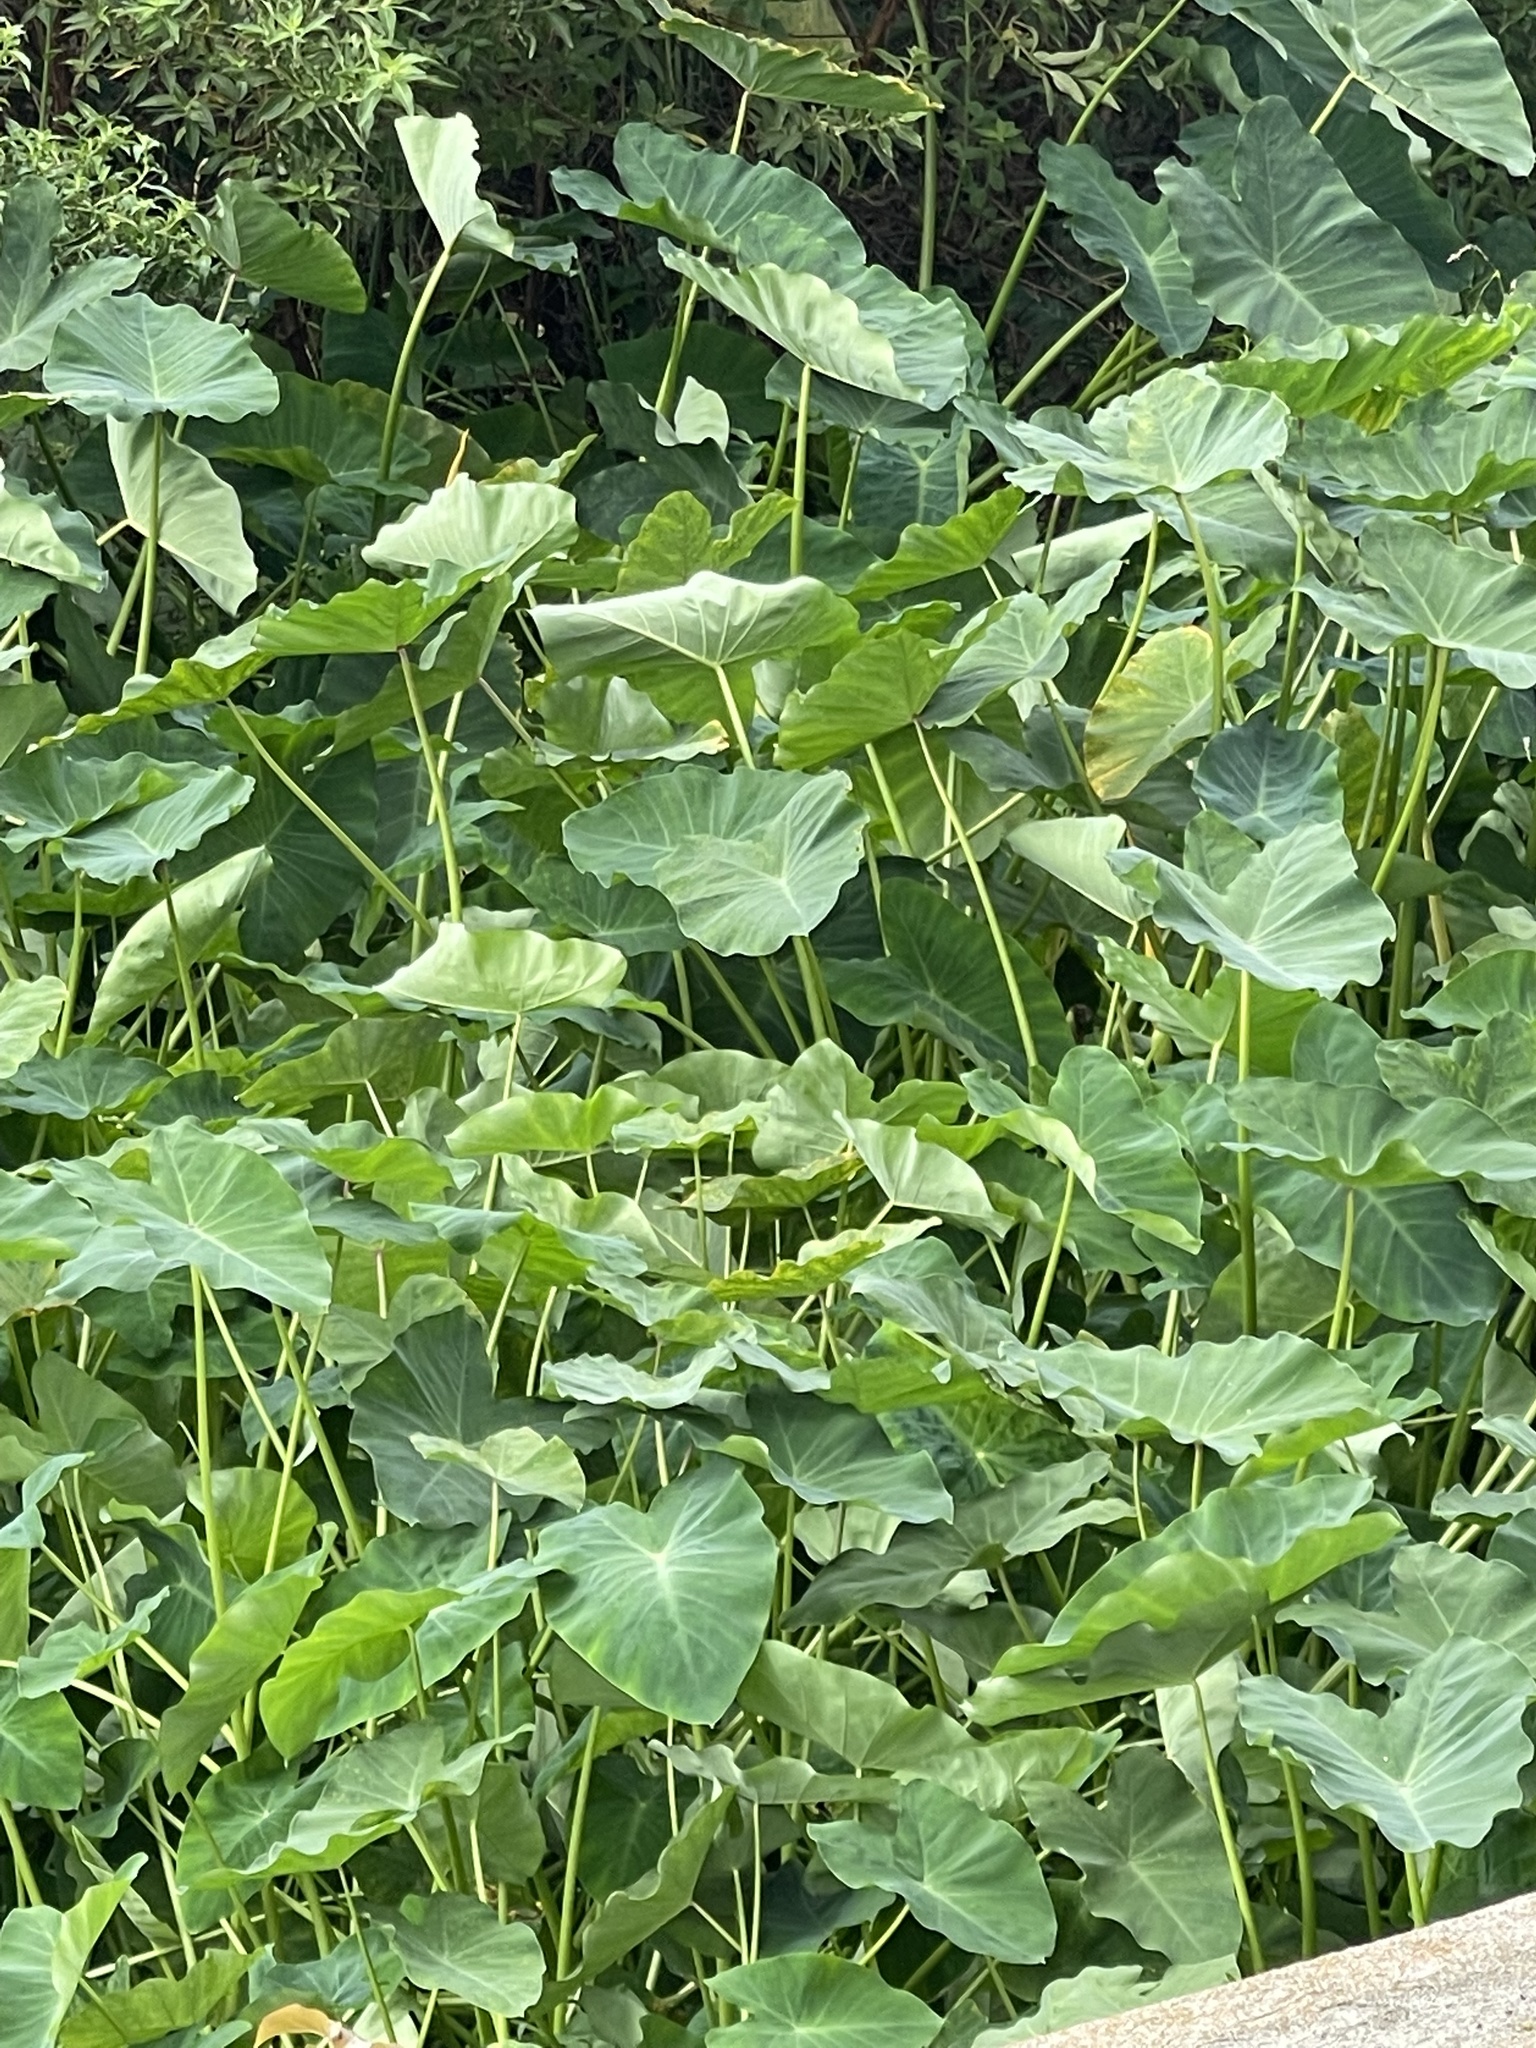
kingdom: Plantae
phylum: Tracheophyta
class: Liliopsida
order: Alismatales
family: Araceae
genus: Colocasia
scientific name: Colocasia esculenta
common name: Taro
